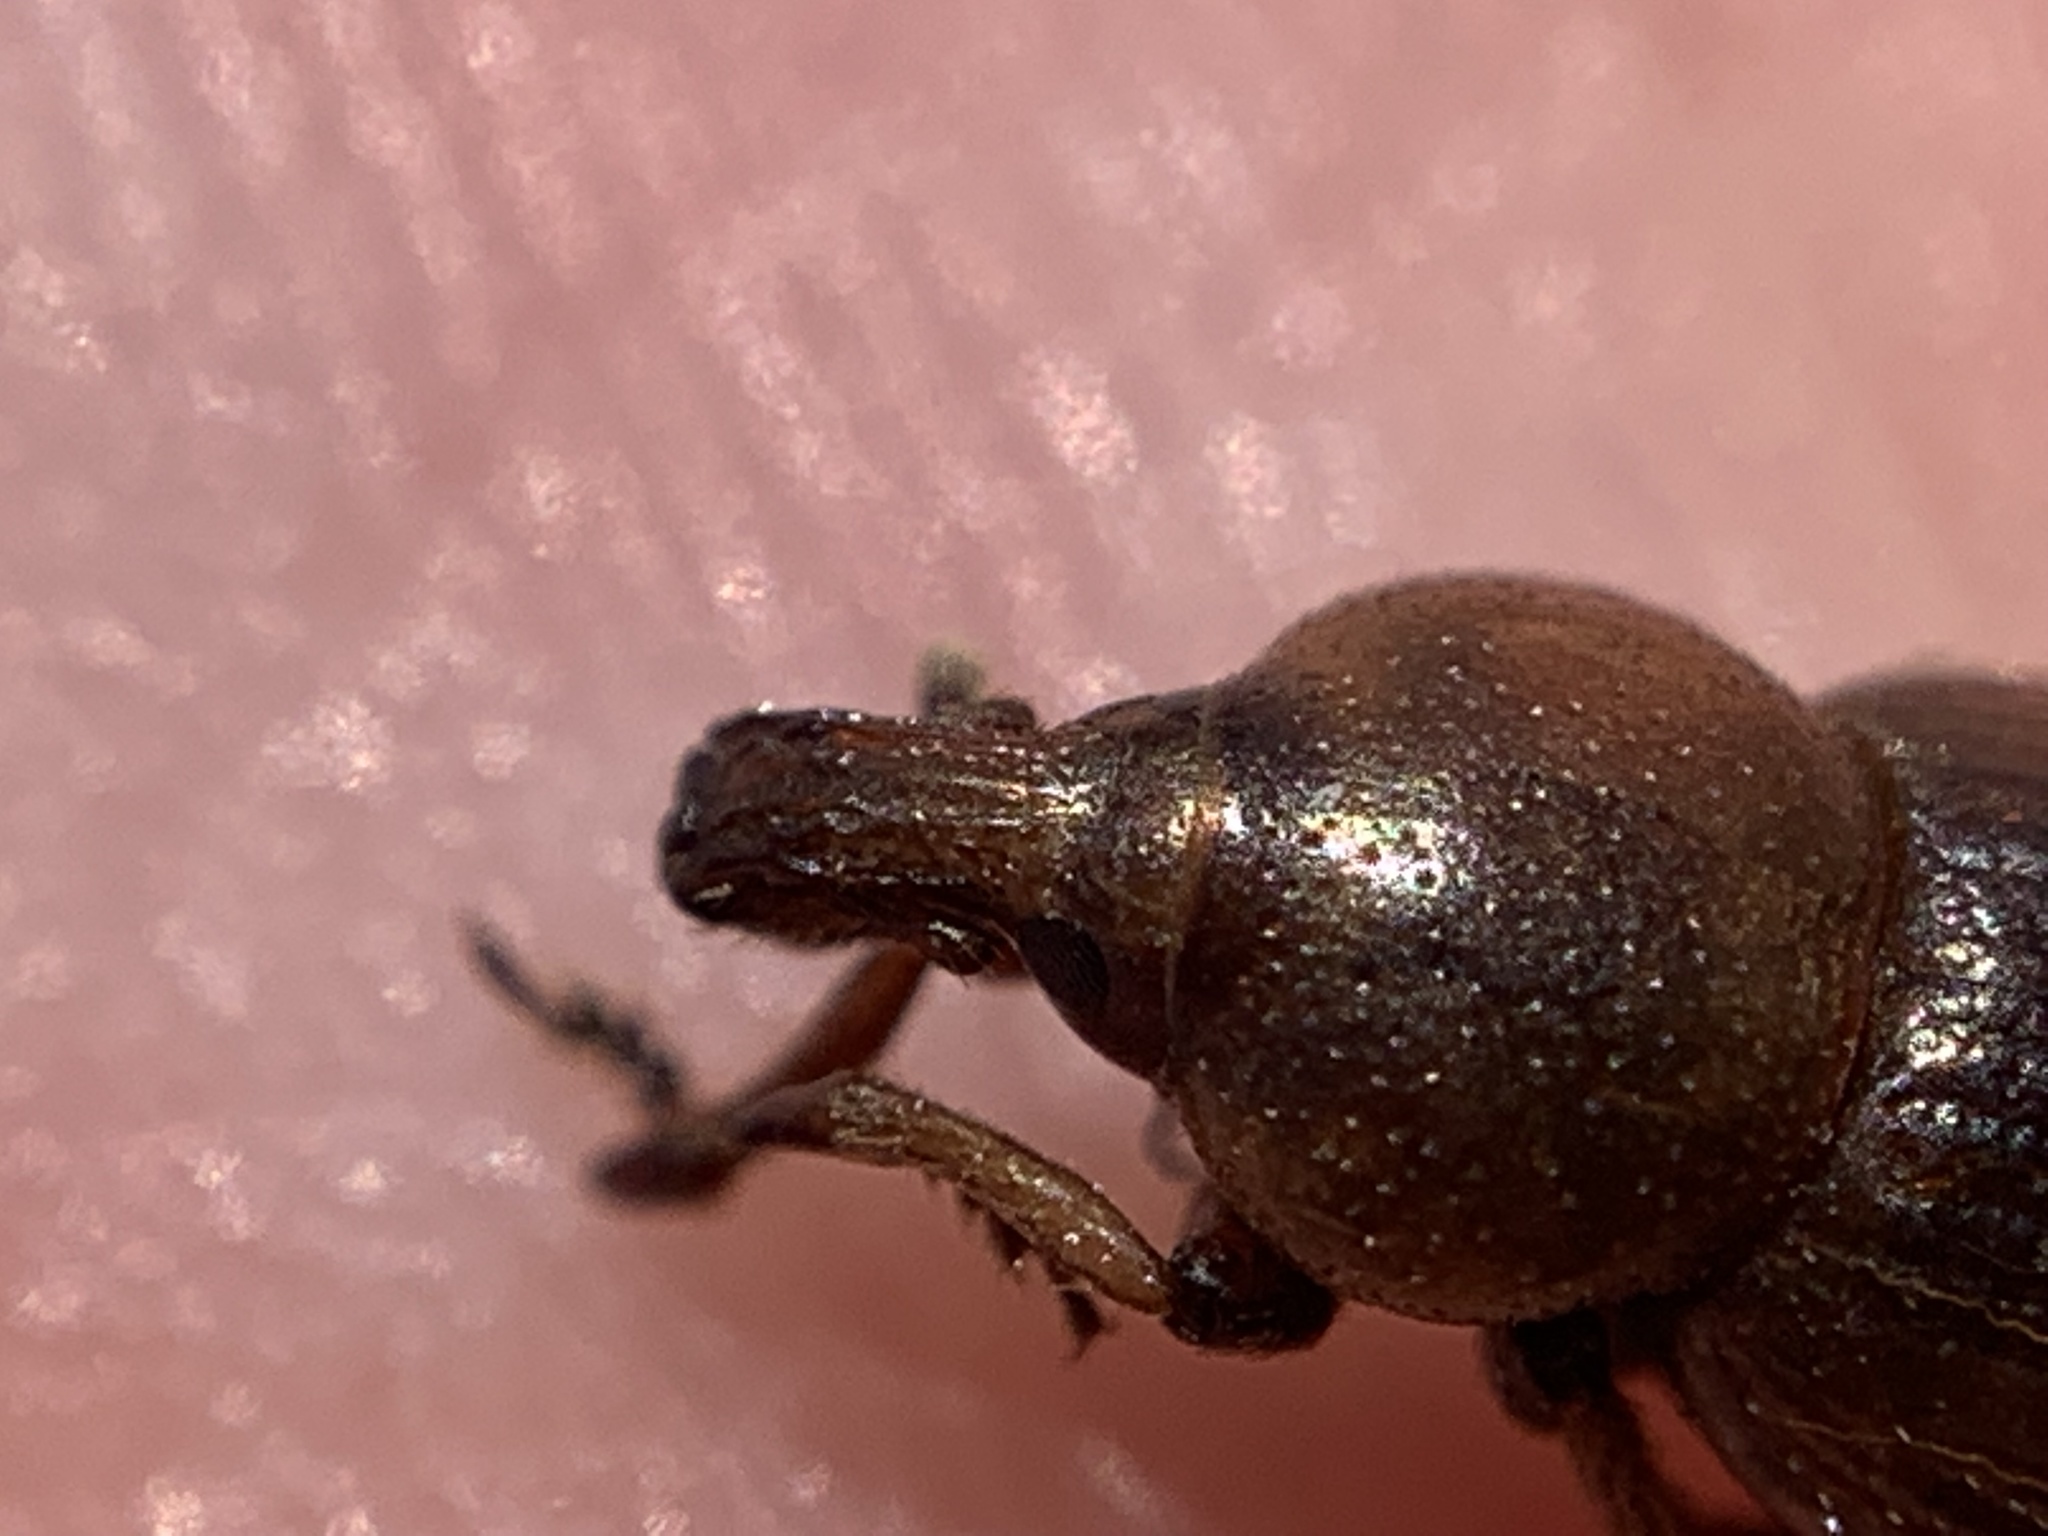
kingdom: Animalia
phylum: Arthropoda
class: Insecta
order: Coleoptera
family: Curculionidae
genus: Emphyastes
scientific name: Emphyastes fucicola
